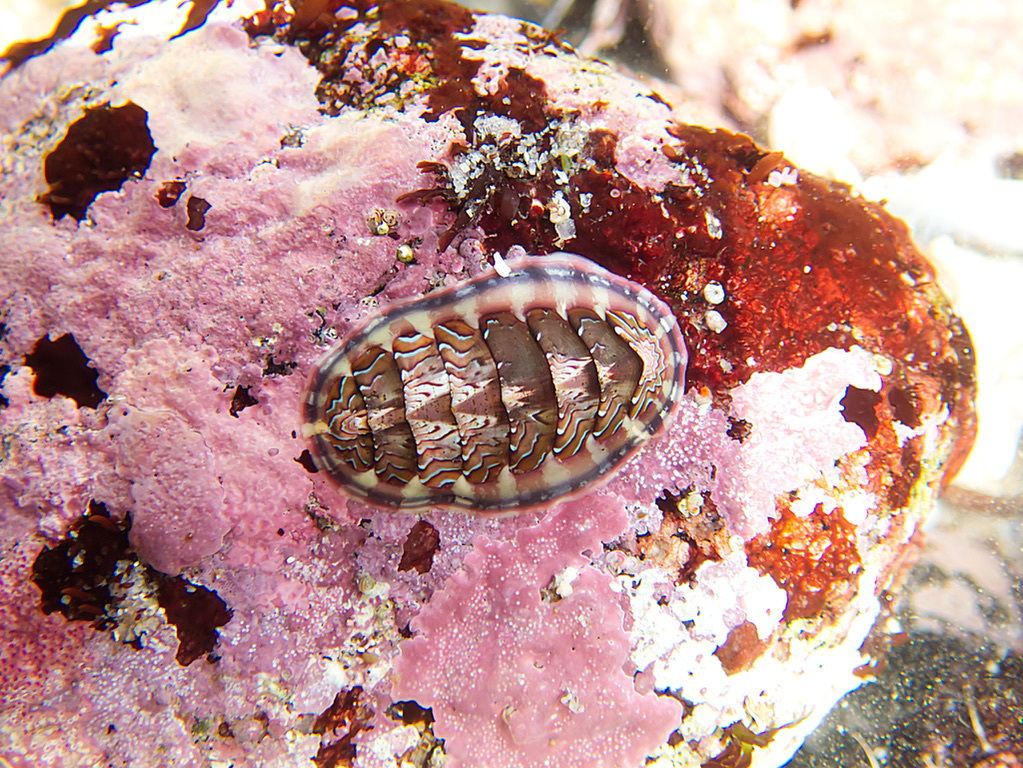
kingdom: Animalia
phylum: Mollusca
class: Polyplacophora
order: Chitonida
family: Tonicellidae
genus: Tonicella
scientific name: Tonicella lokii
